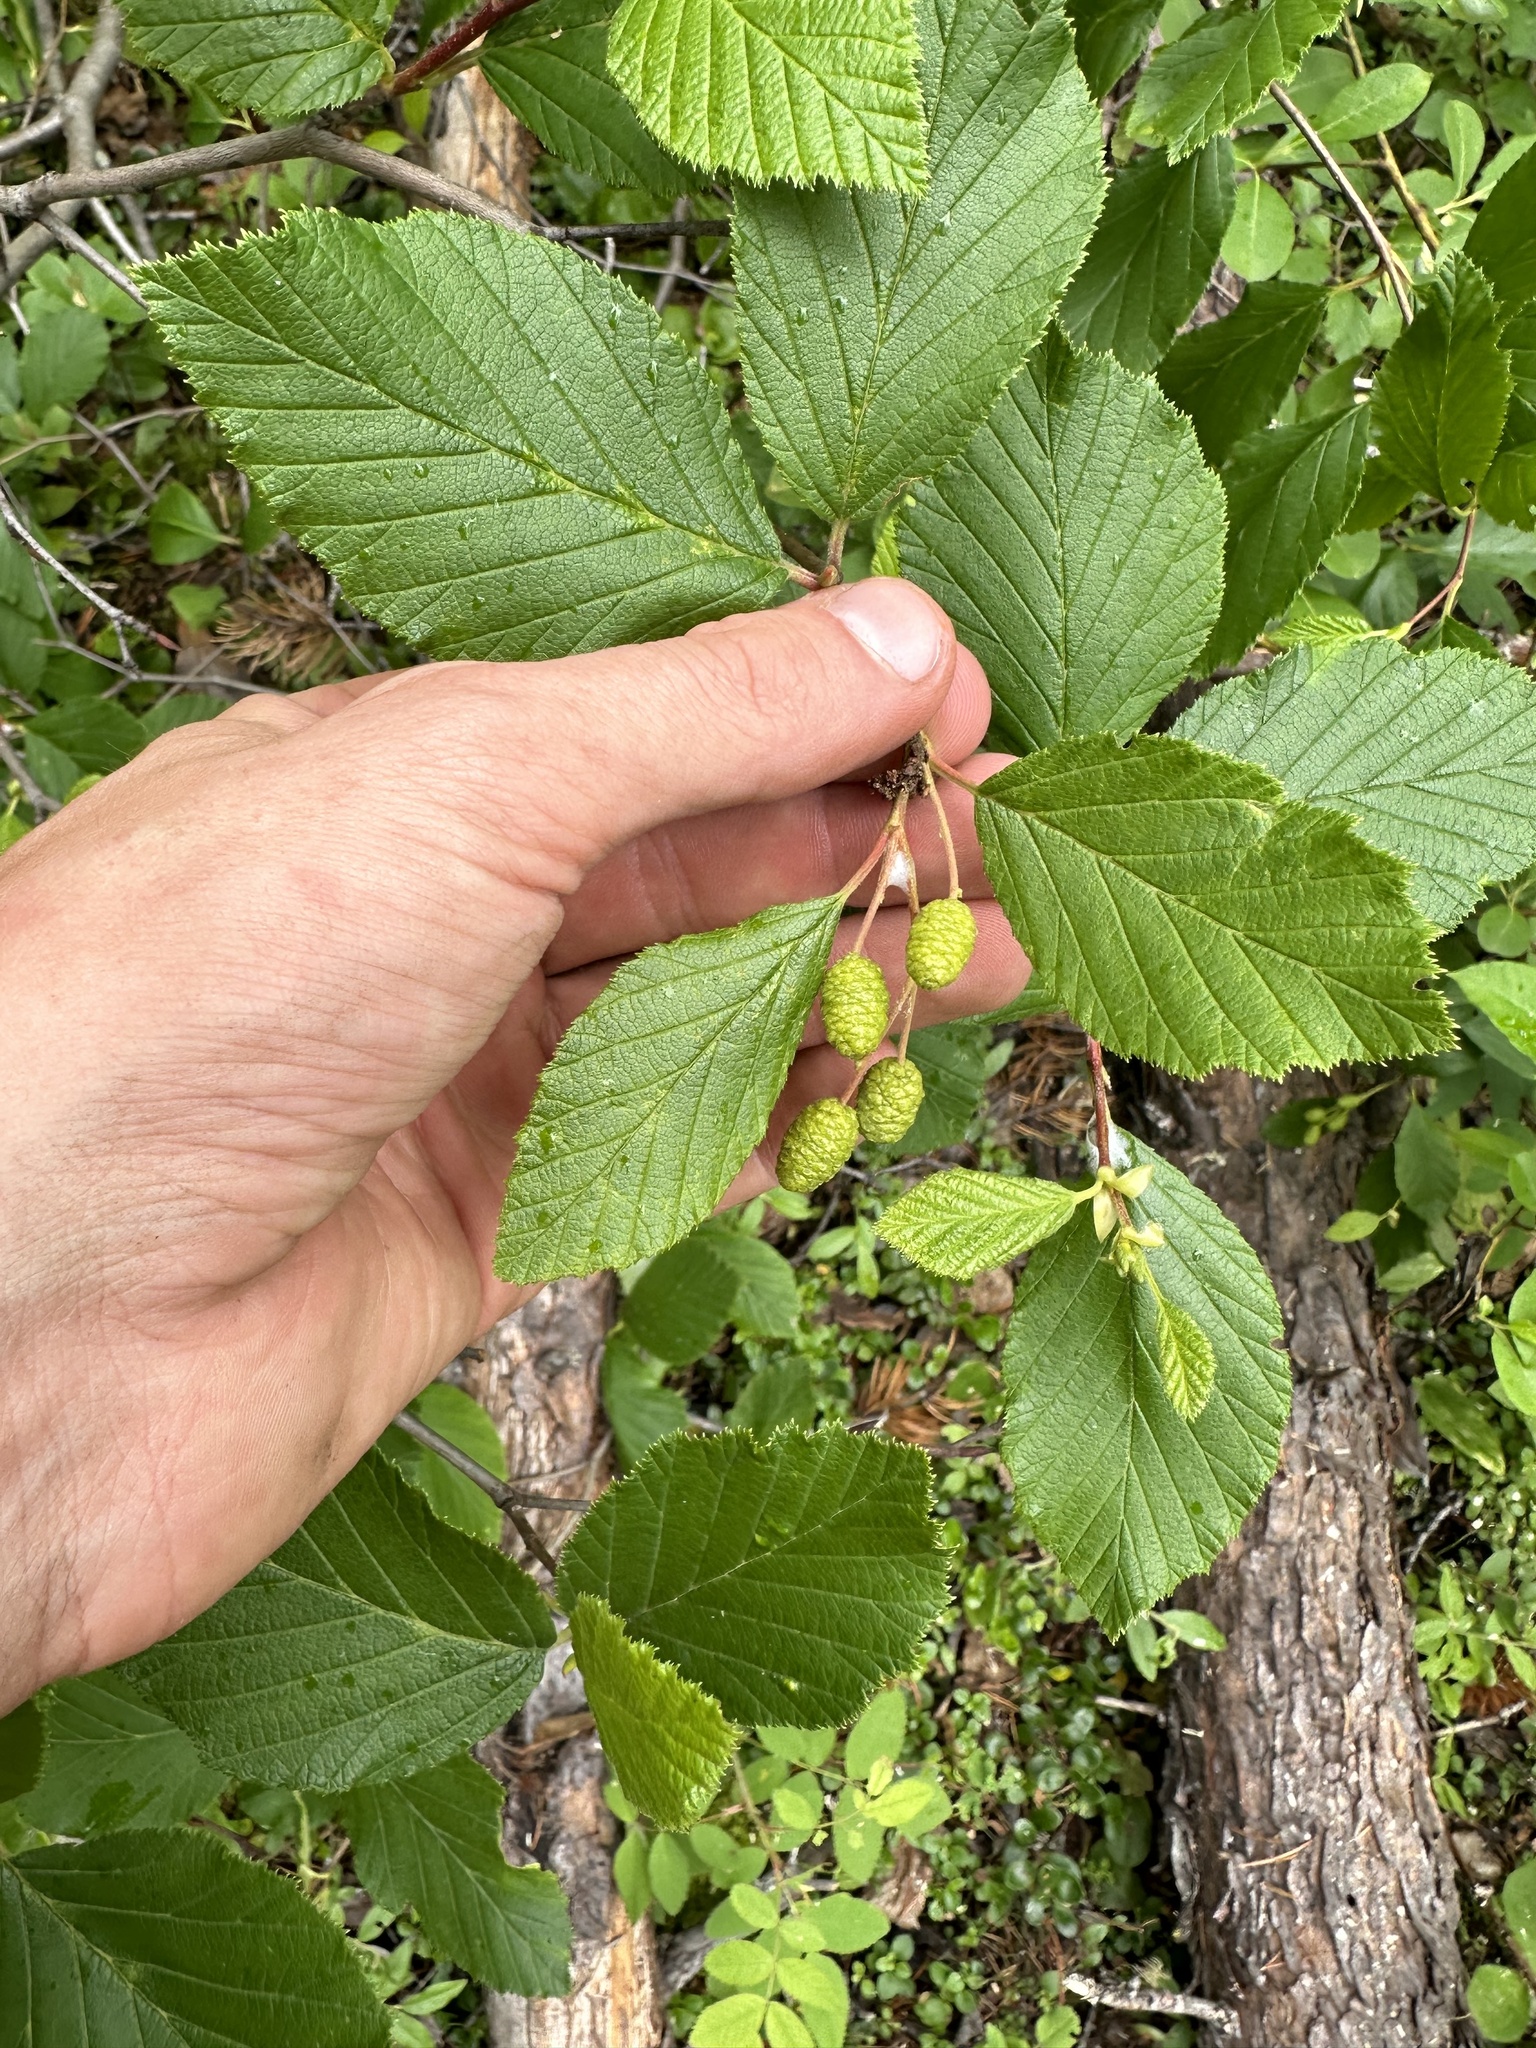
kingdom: Plantae
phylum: Tracheophyta
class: Magnoliopsida
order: Fagales
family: Betulaceae
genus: Alnus
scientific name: Alnus alnobetula
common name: Green alder
